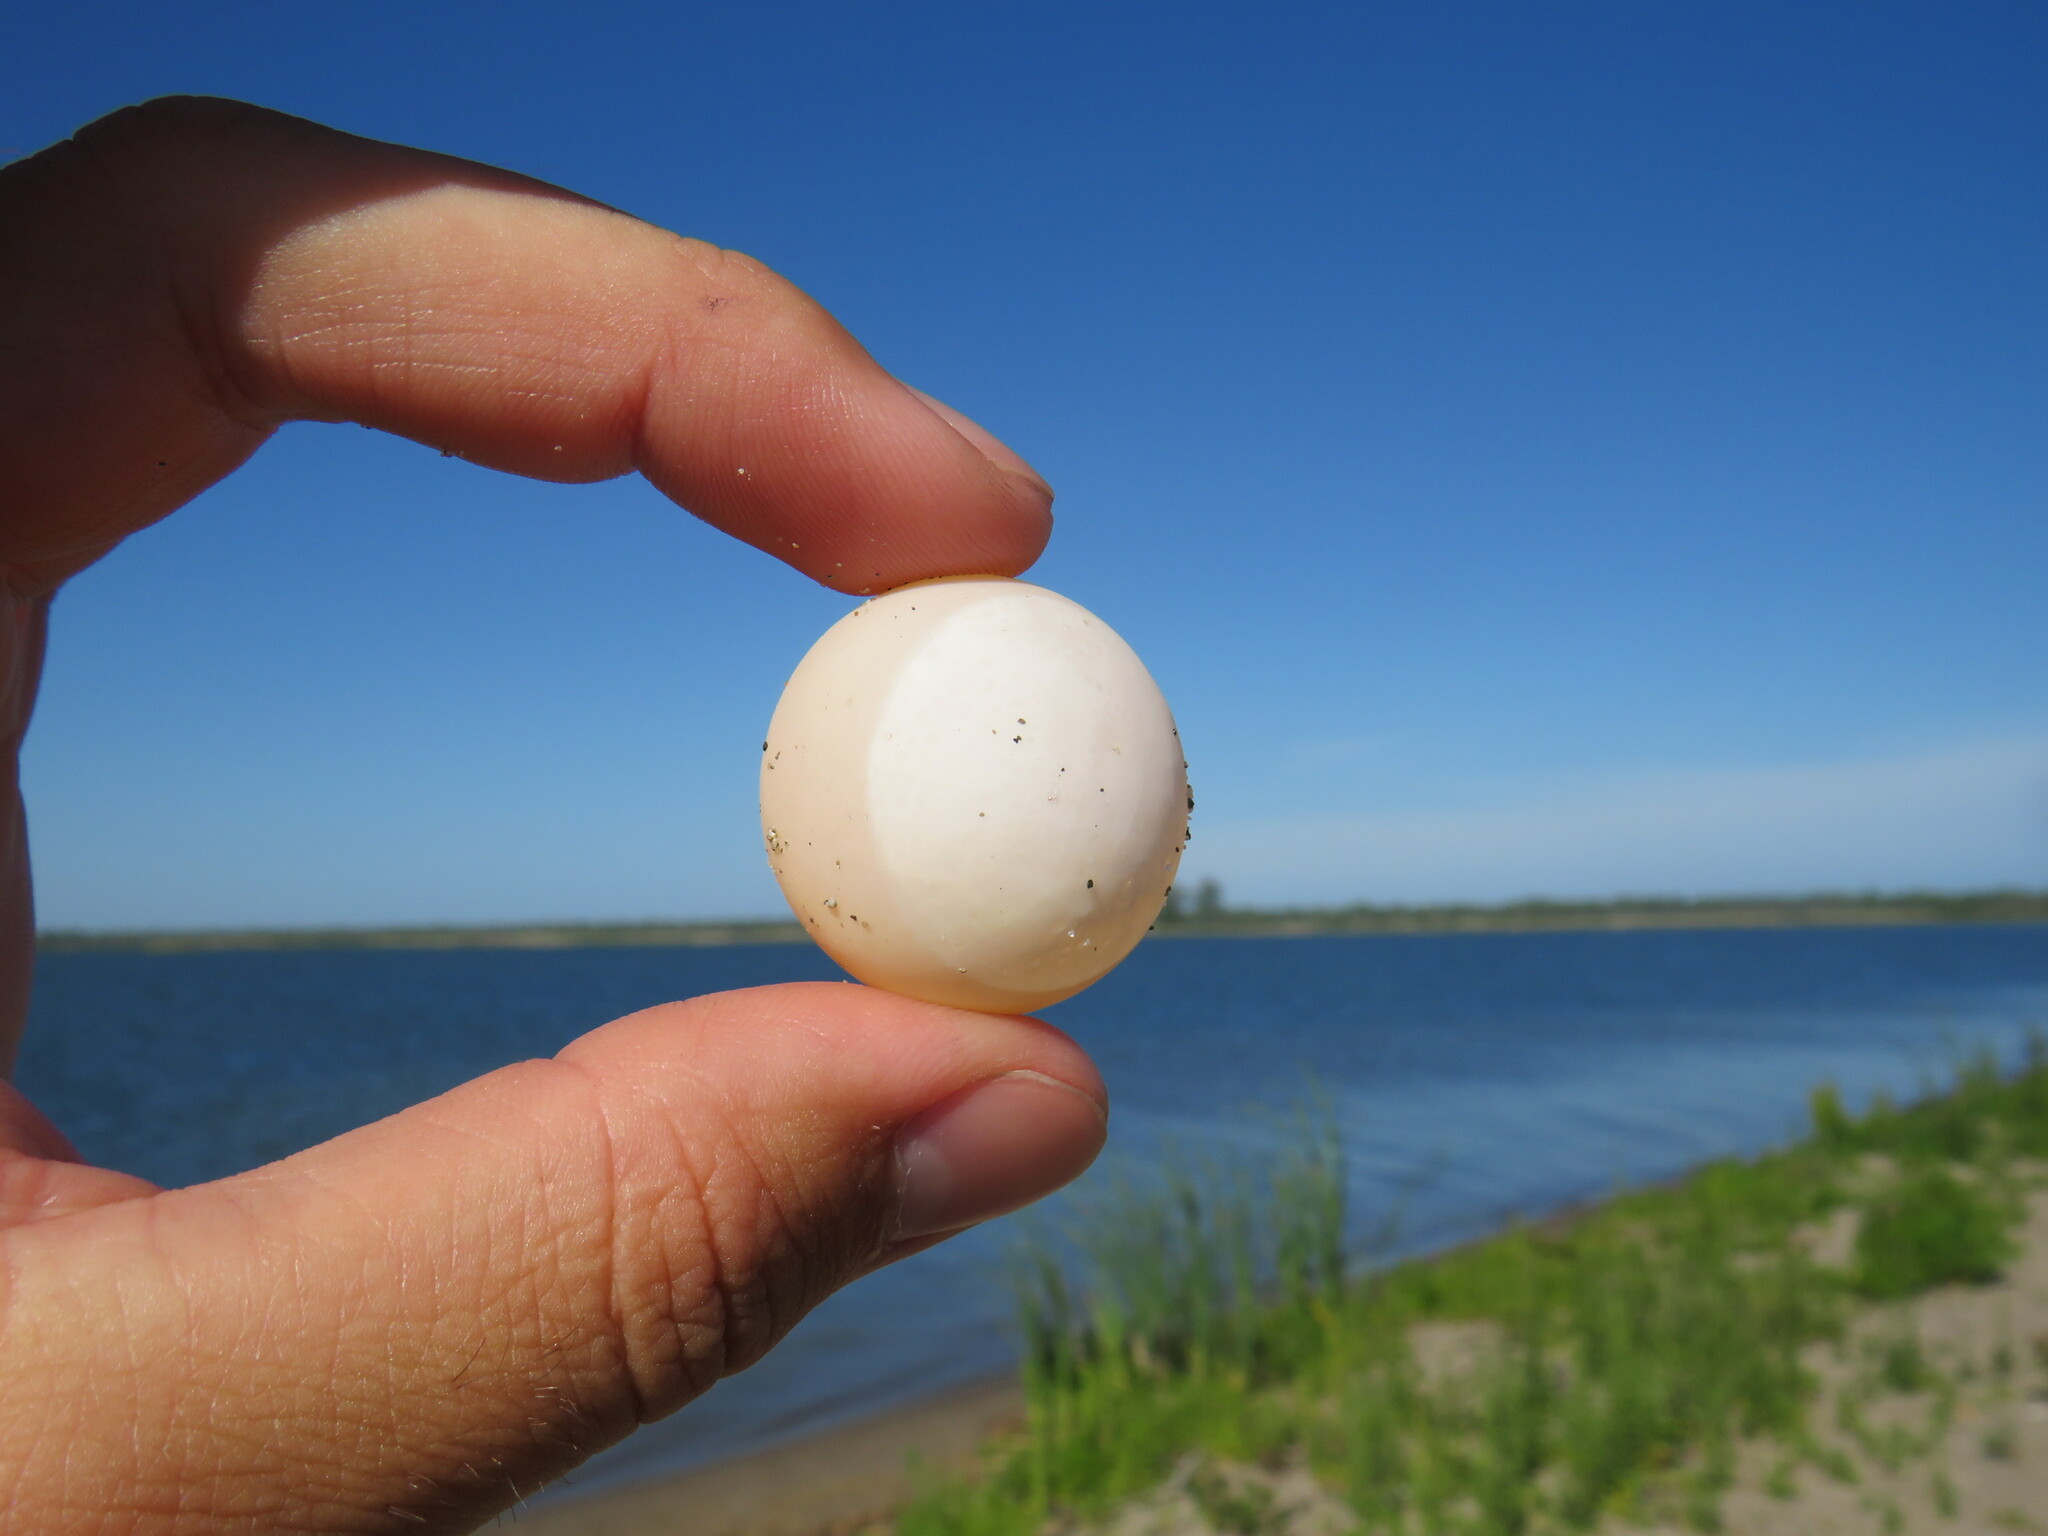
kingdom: Animalia
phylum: Chordata
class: Testudines
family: Trionychidae
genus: Apalone
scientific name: Apalone spinifera
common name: Spiny softshell turtle
